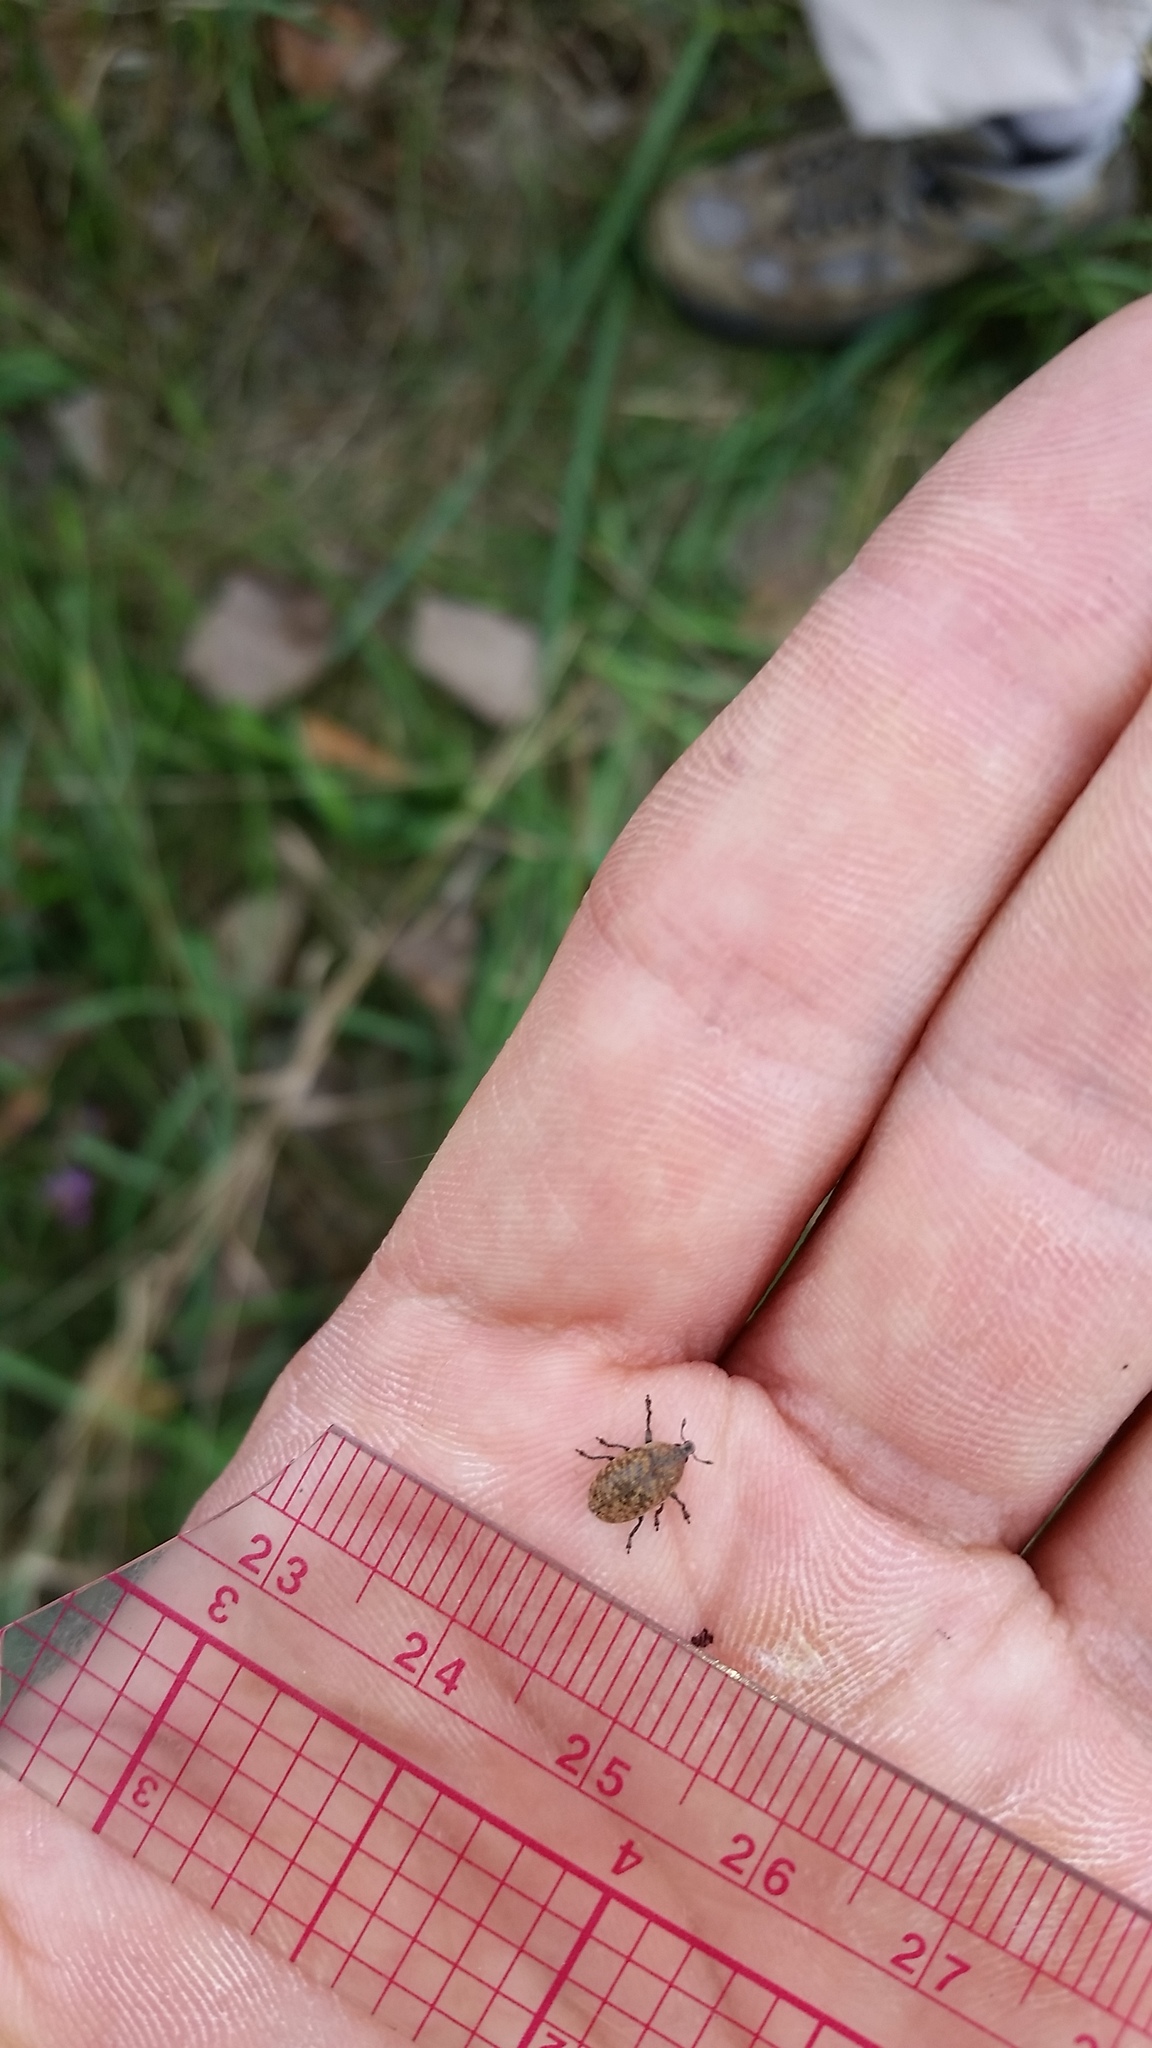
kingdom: Animalia
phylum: Arthropoda
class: Insecta
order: Coleoptera
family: Curculionidae
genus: Larinus
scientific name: Larinus obtusus
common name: Weevil
